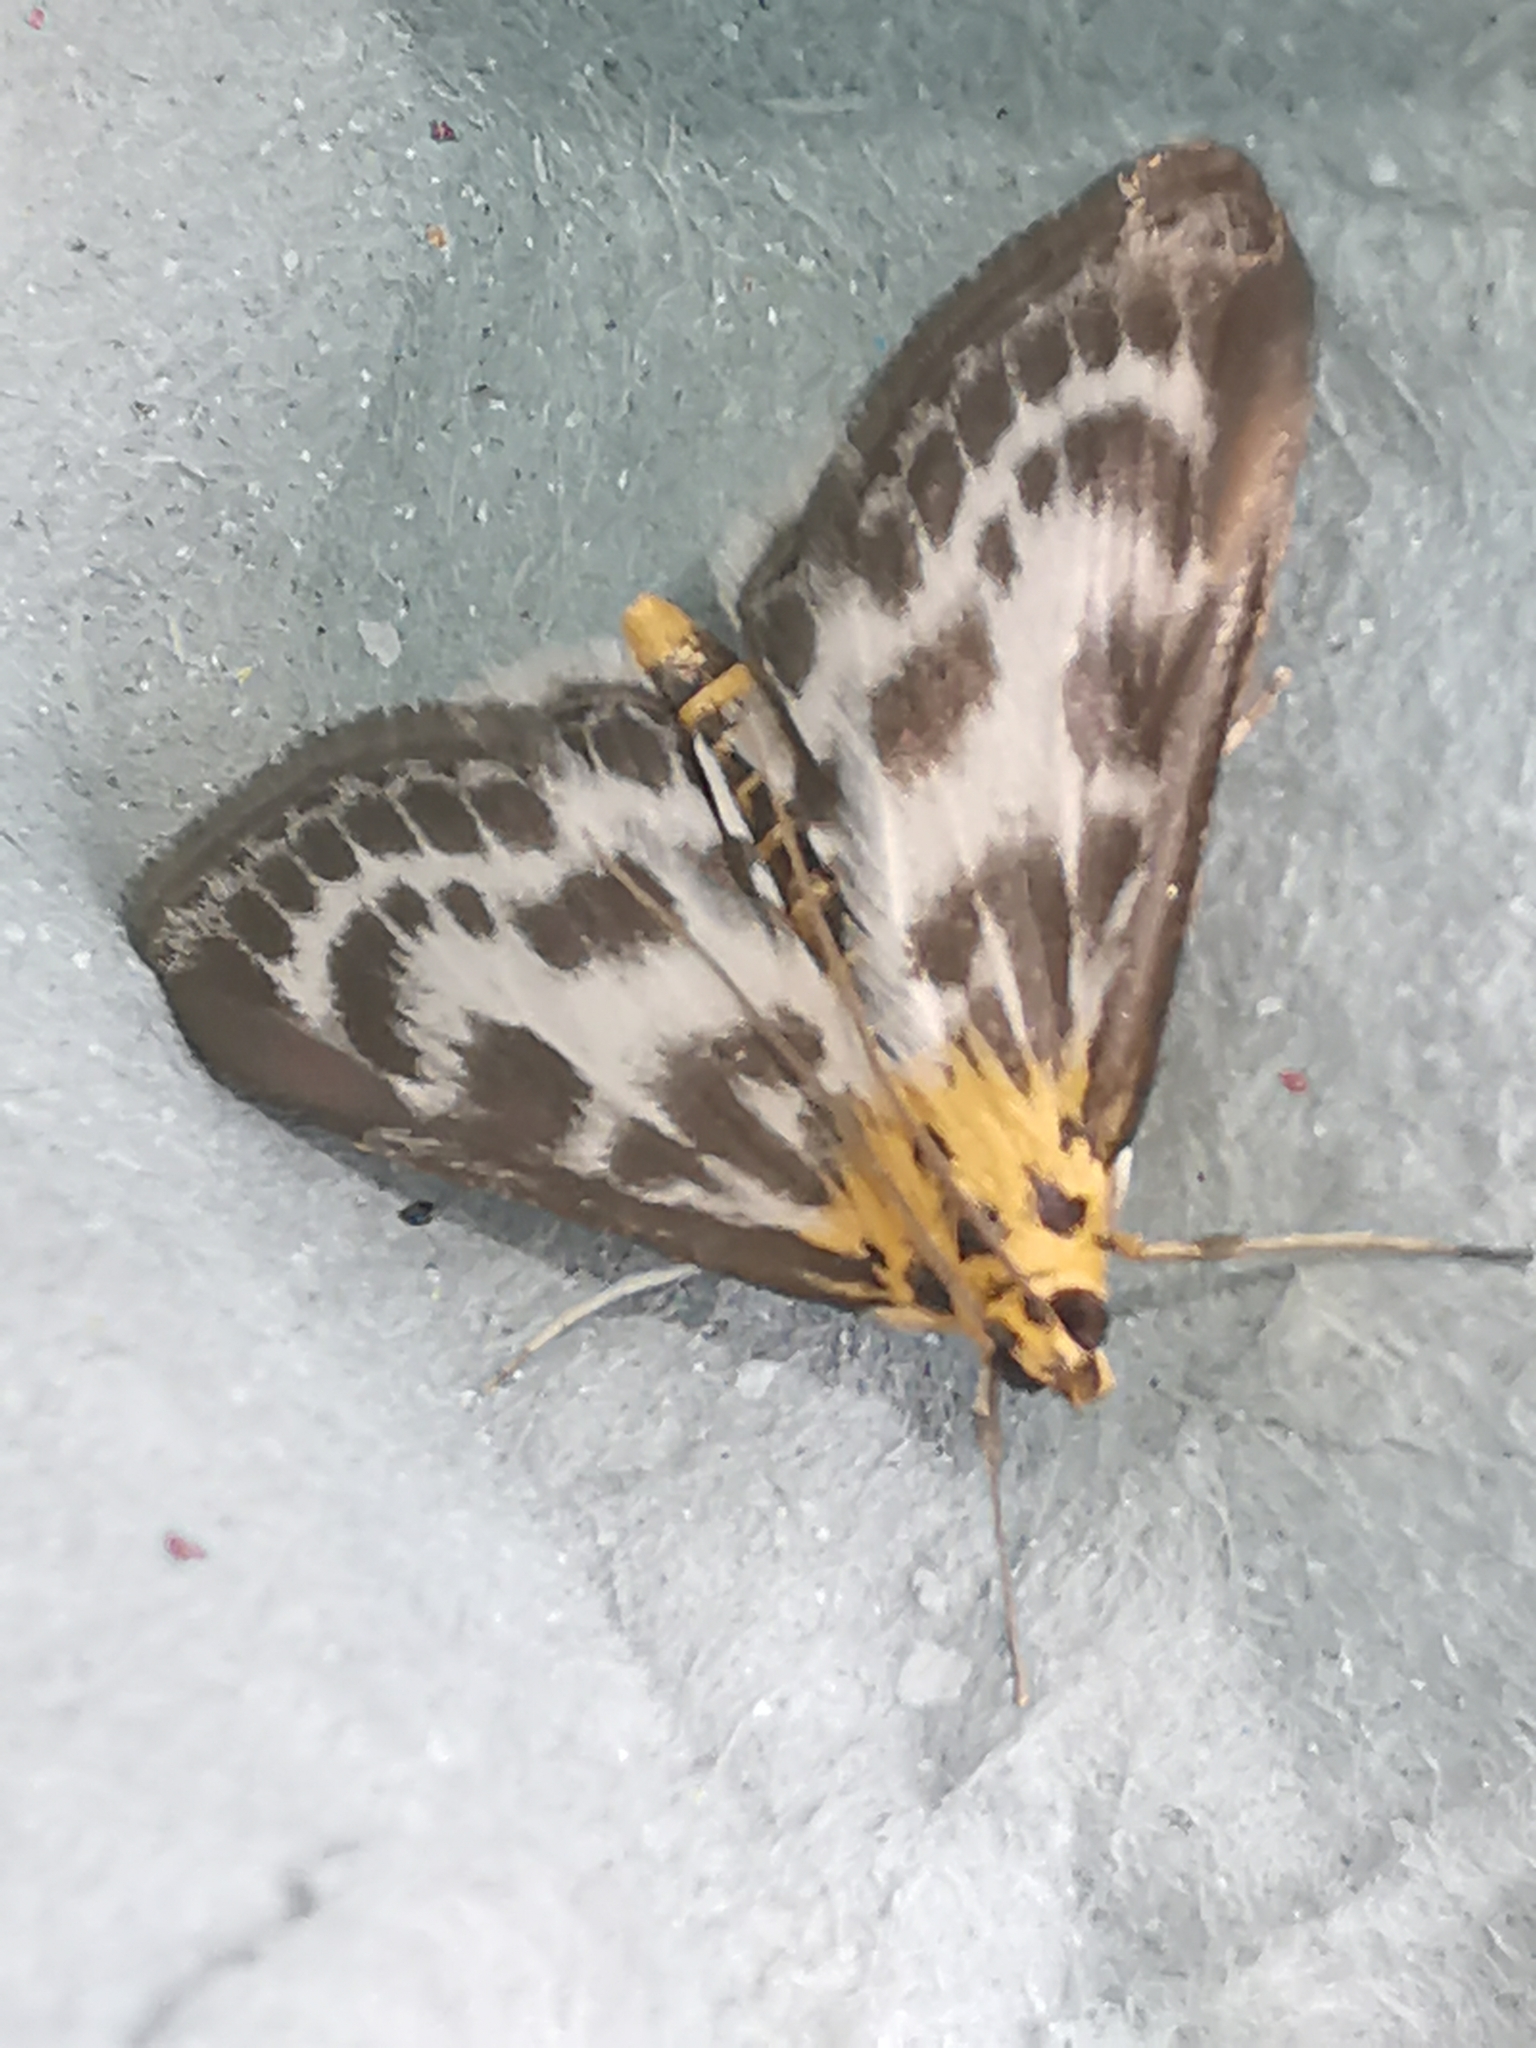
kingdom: Animalia
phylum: Arthropoda
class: Insecta
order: Lepidoptera
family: Crambidae
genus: Anania
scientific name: Anania hortulata
